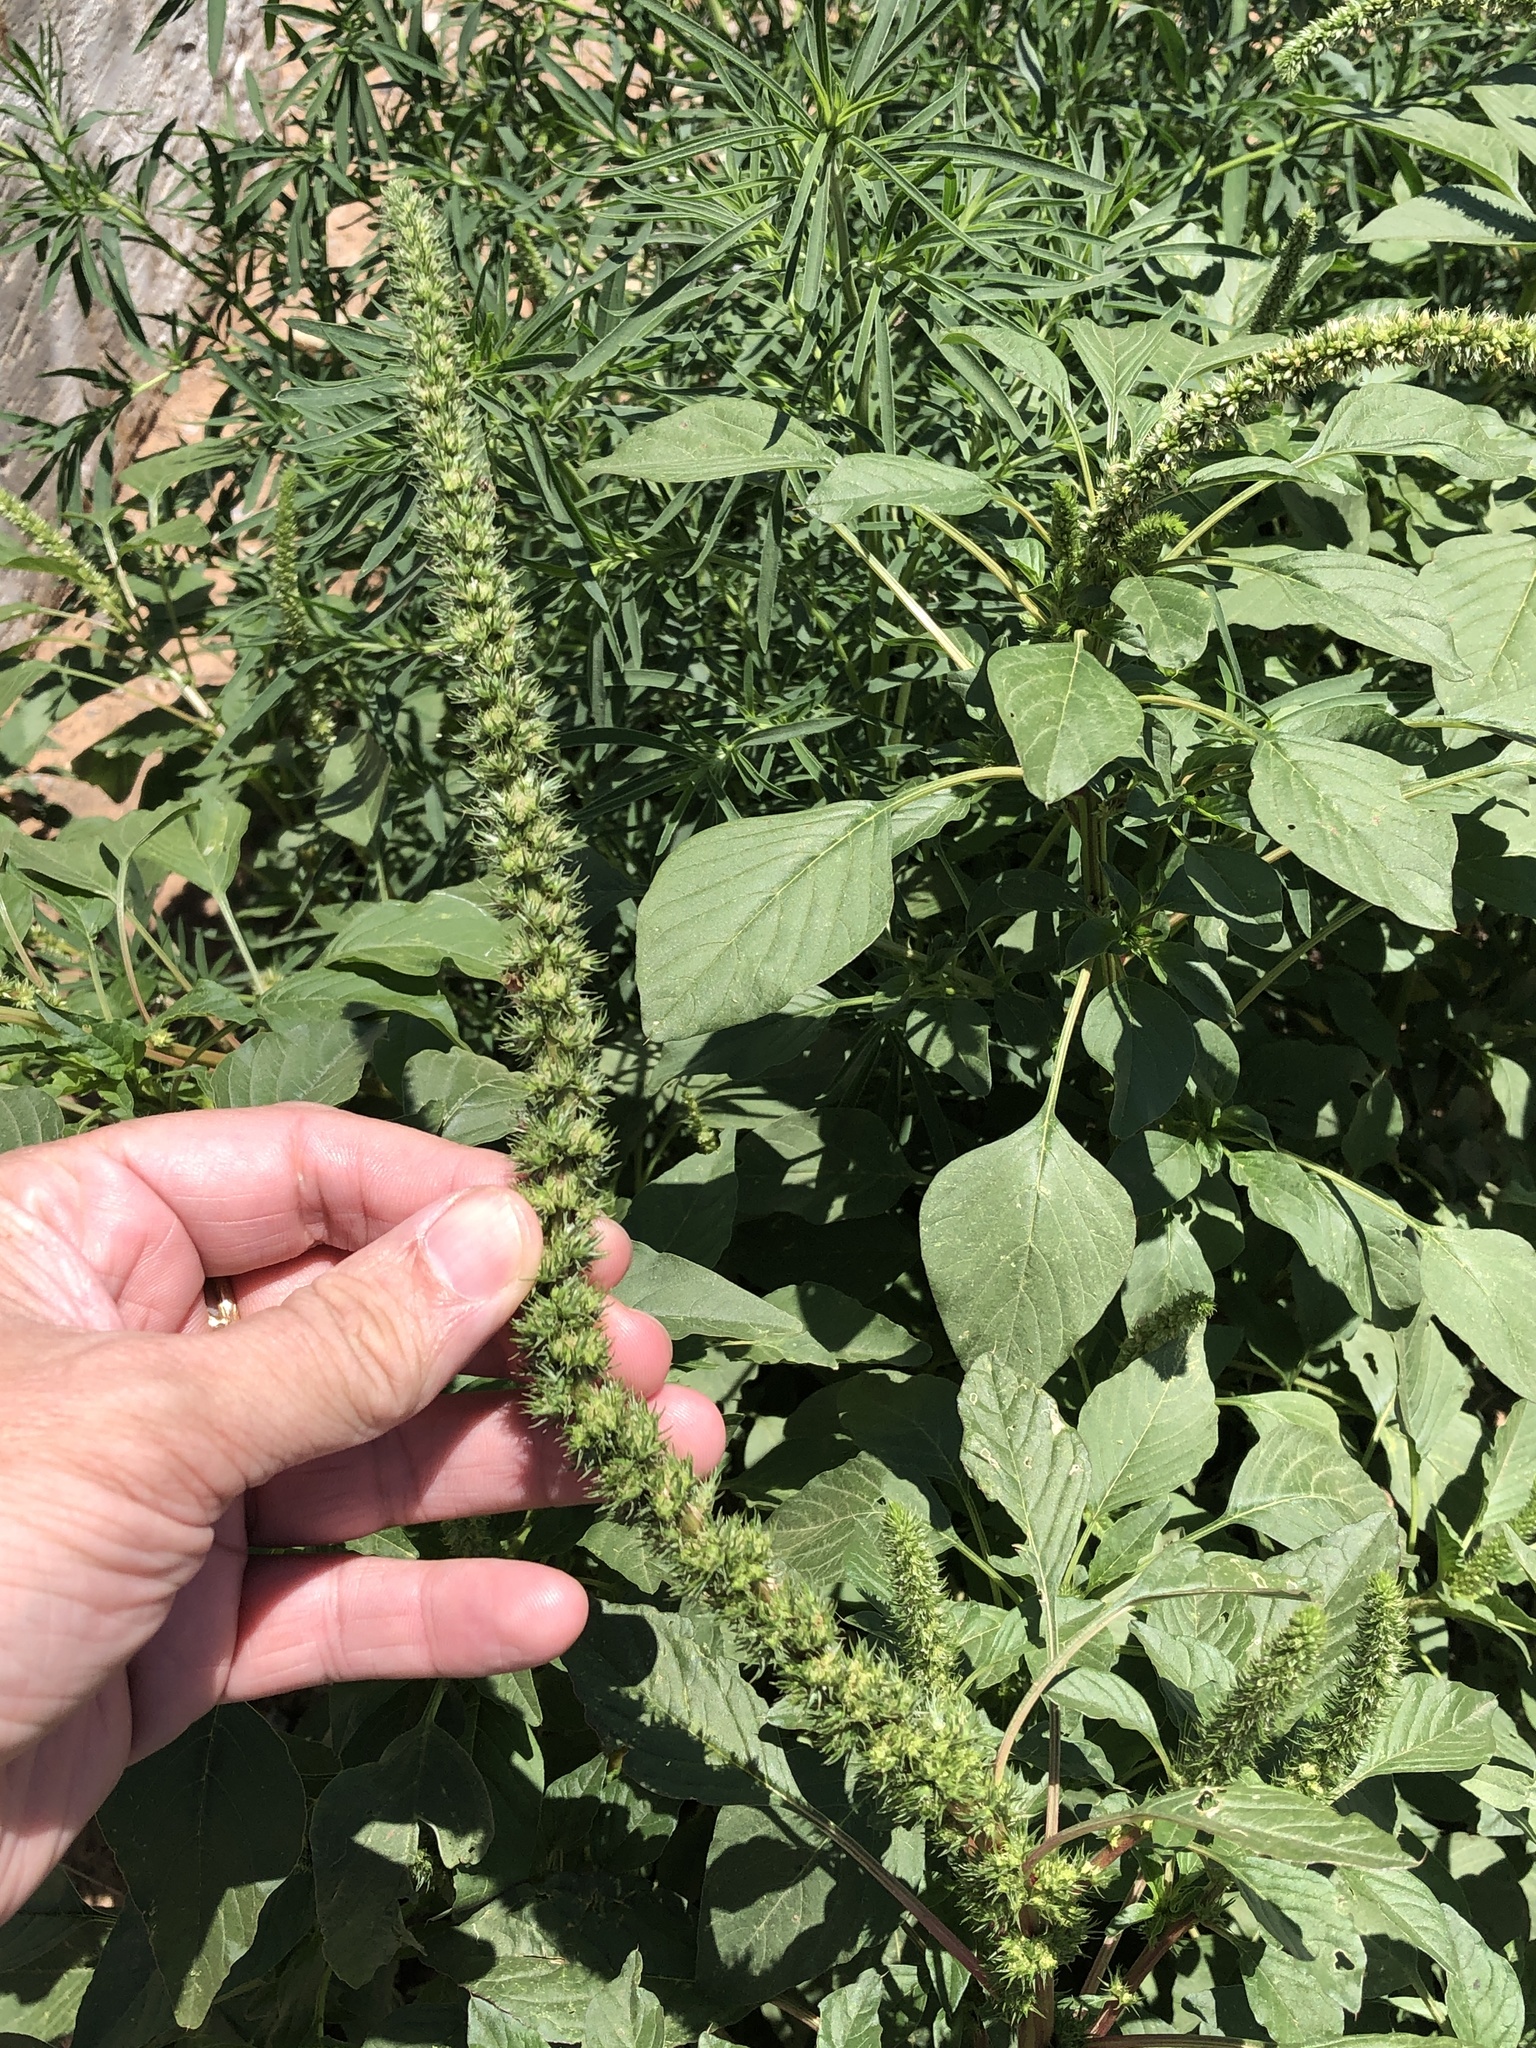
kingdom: Plantae
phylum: Tracheophyta
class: Magnoliopsida
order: Caryophyllales
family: Amaranthaceae
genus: Amaranthus
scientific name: Amaranthus palmeri
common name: Dioecious amaranth
